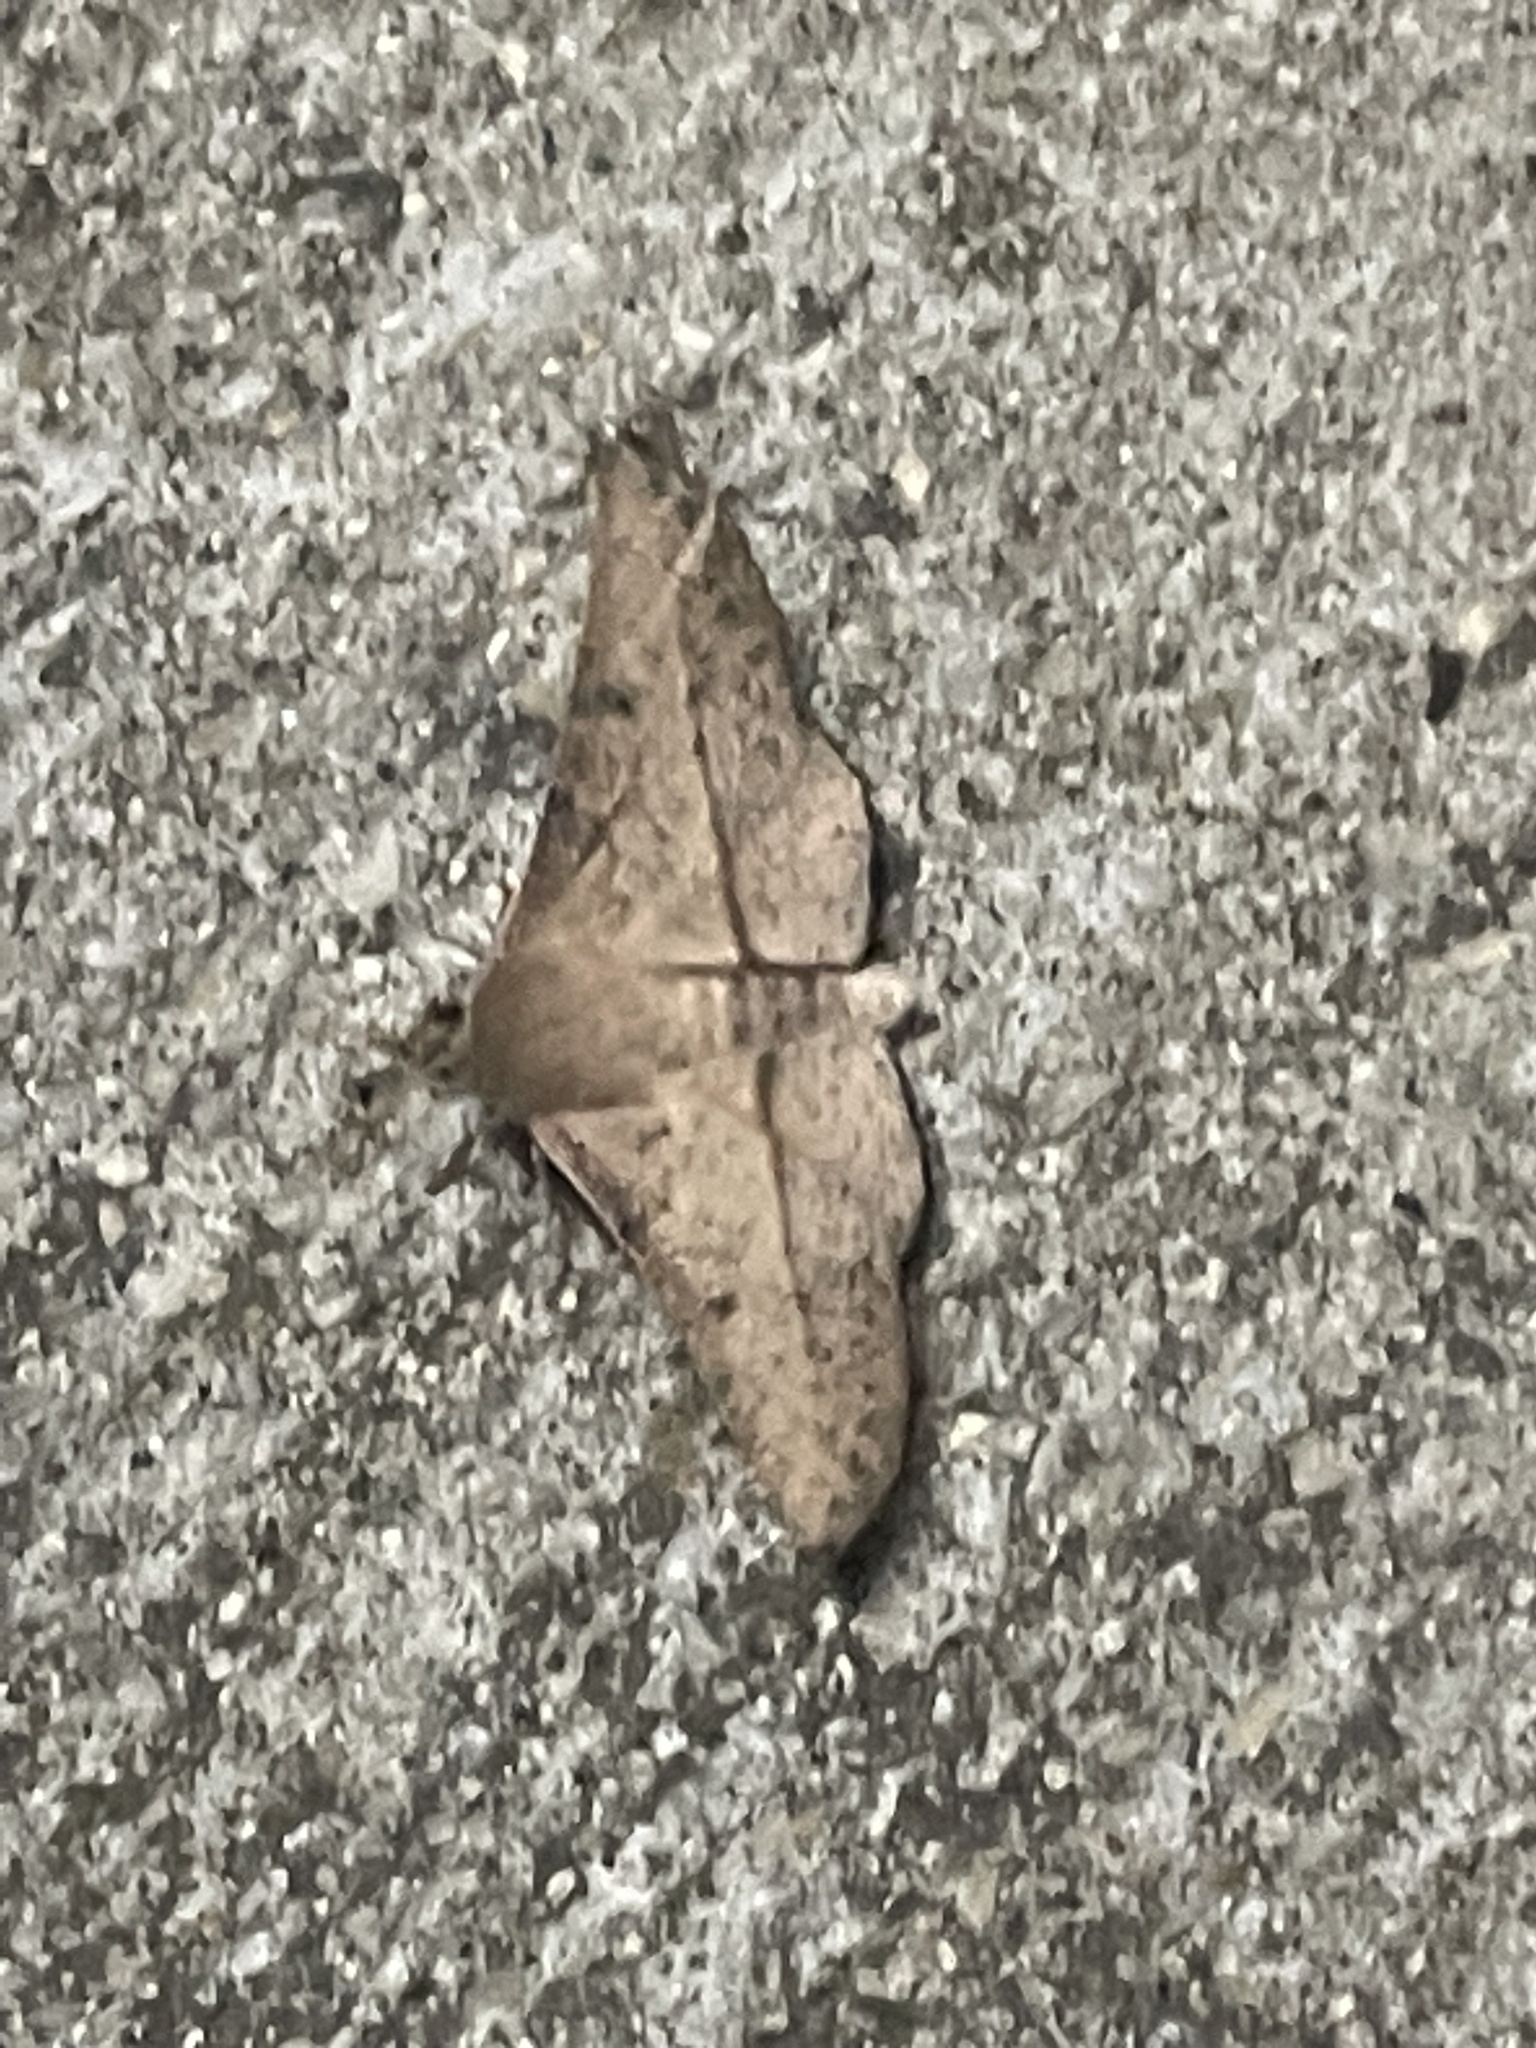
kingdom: Animalia
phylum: Arthropoda
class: Insecta
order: Lepidoptera
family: Geometridae
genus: Antictenia
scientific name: Antictenia punctunculus
